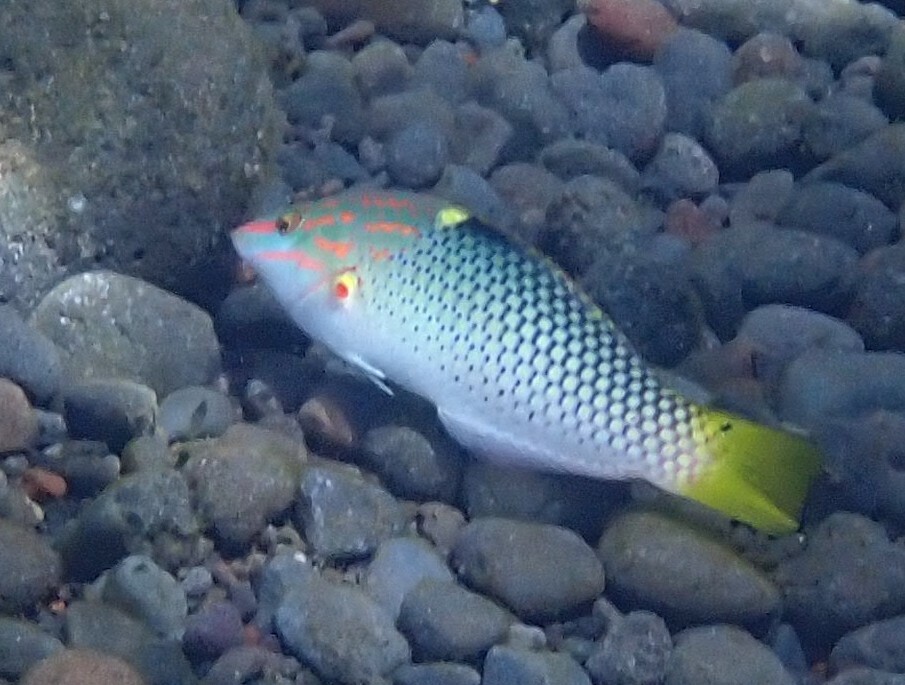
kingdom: Animalia
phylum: Chordata
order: Perciformes
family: Labridae
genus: Halichoeres
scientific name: Halichoeres hortulanus
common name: Checkerboard wrasse
